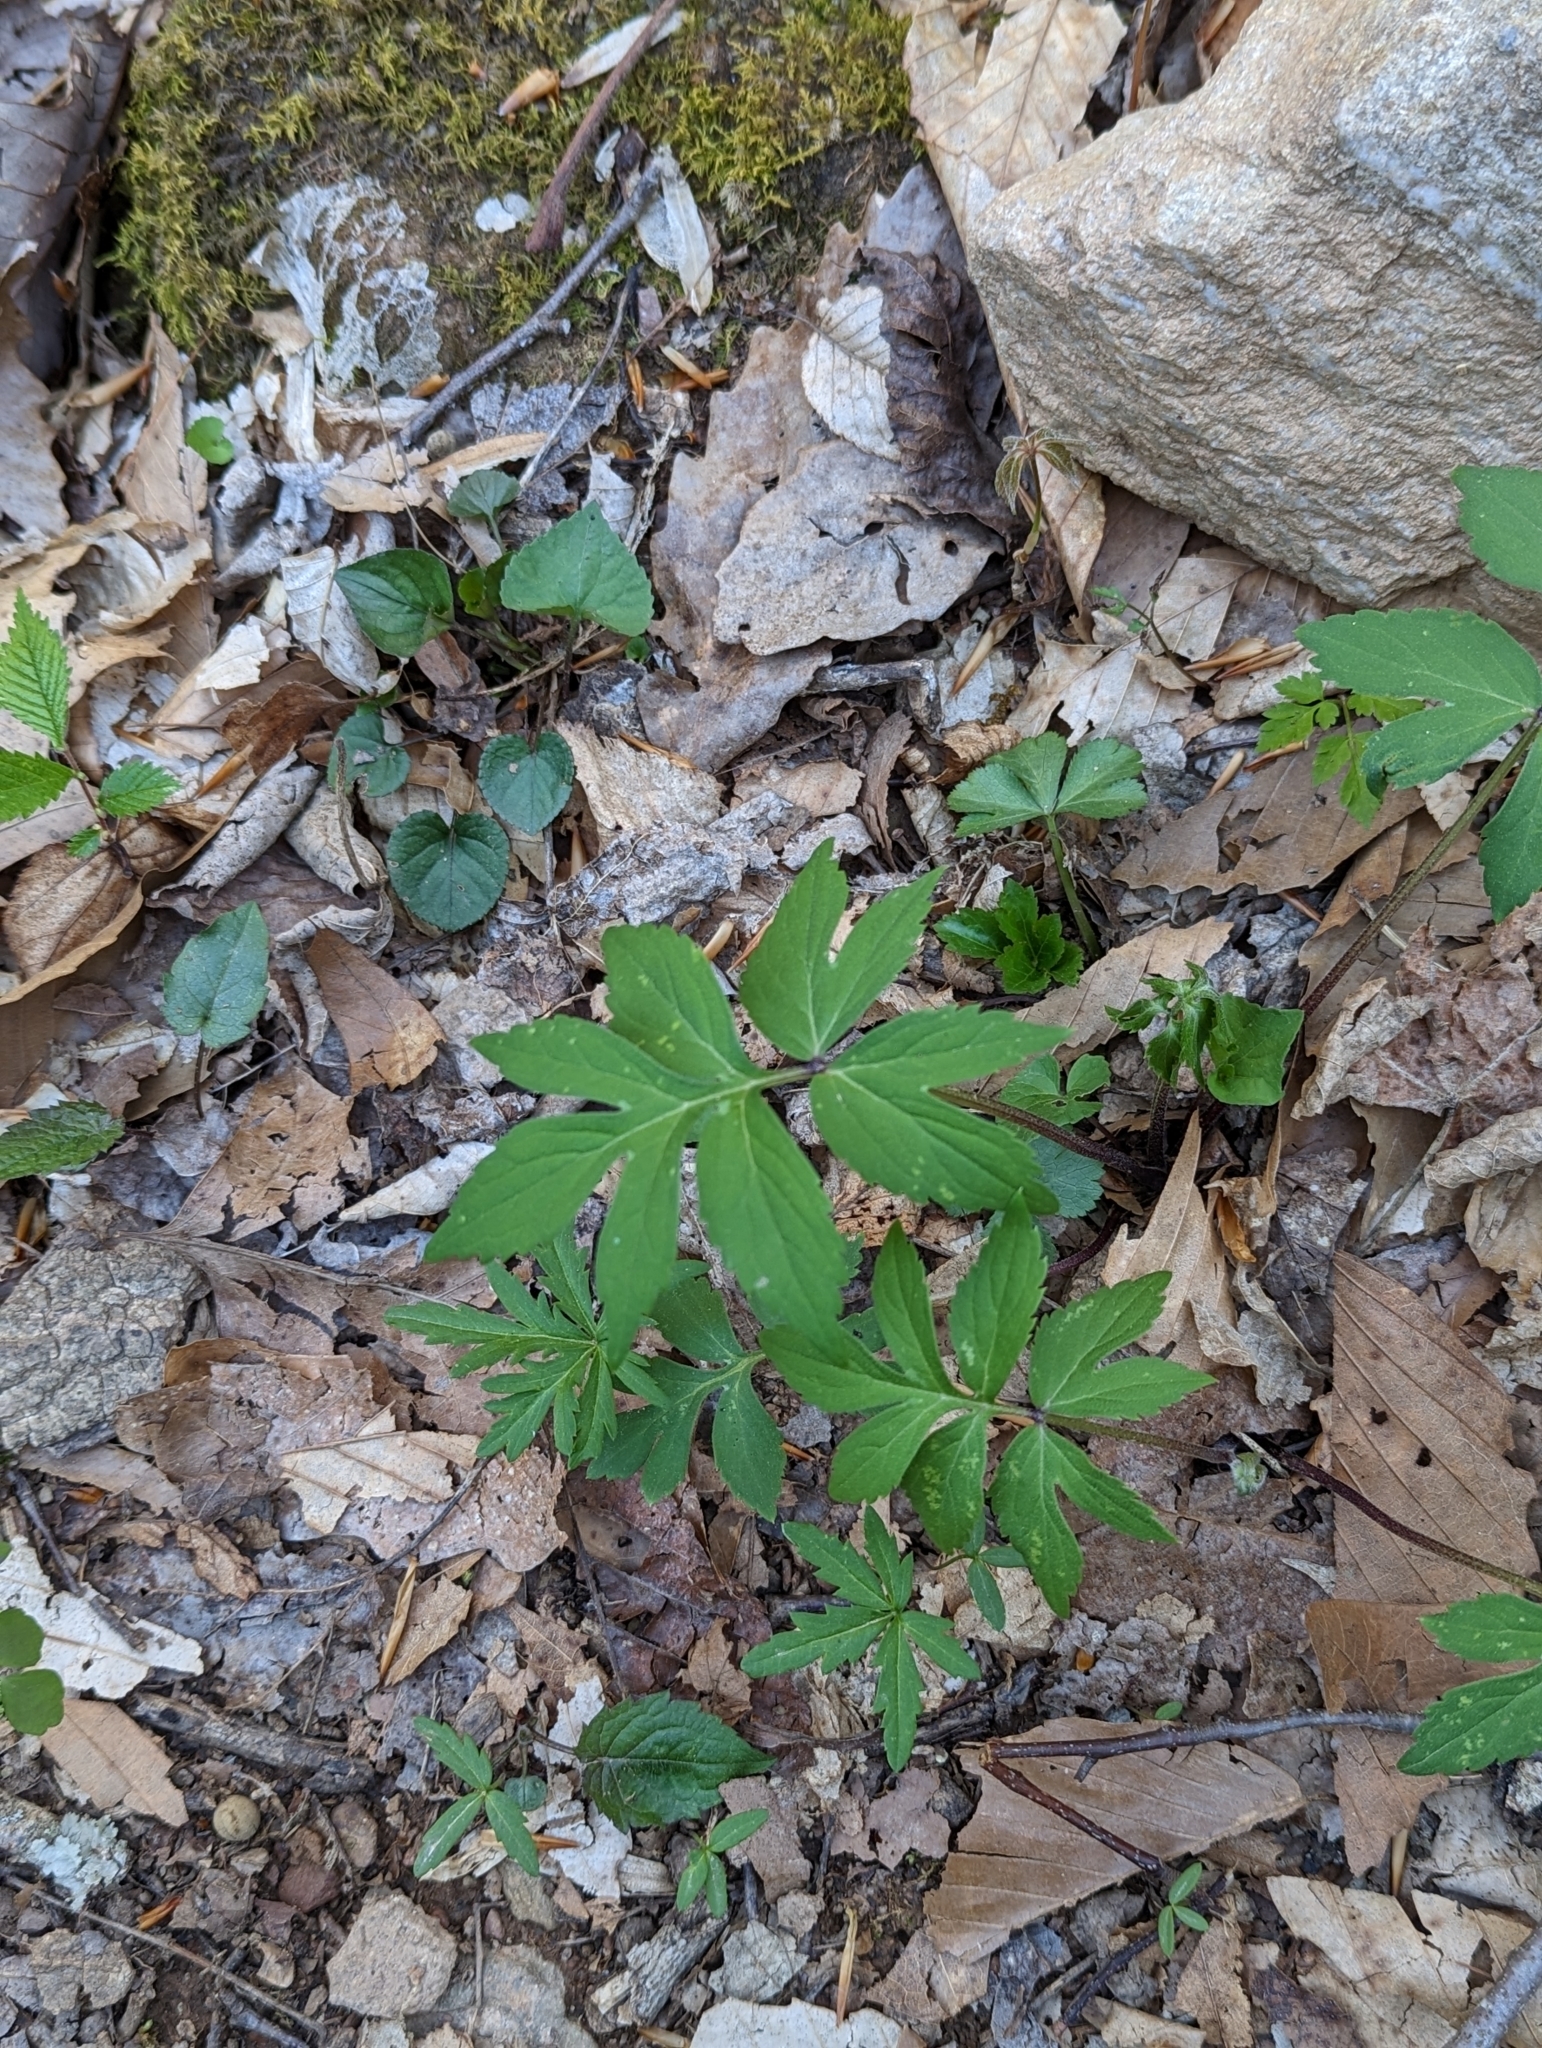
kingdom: Plantae
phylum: Tracheophyta
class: Magnoliopsida
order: Boraginales
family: Hydrophyllaceae
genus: Hydrophyllum
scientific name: Hydrophyllum virginianum
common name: Virginia waterleaf
